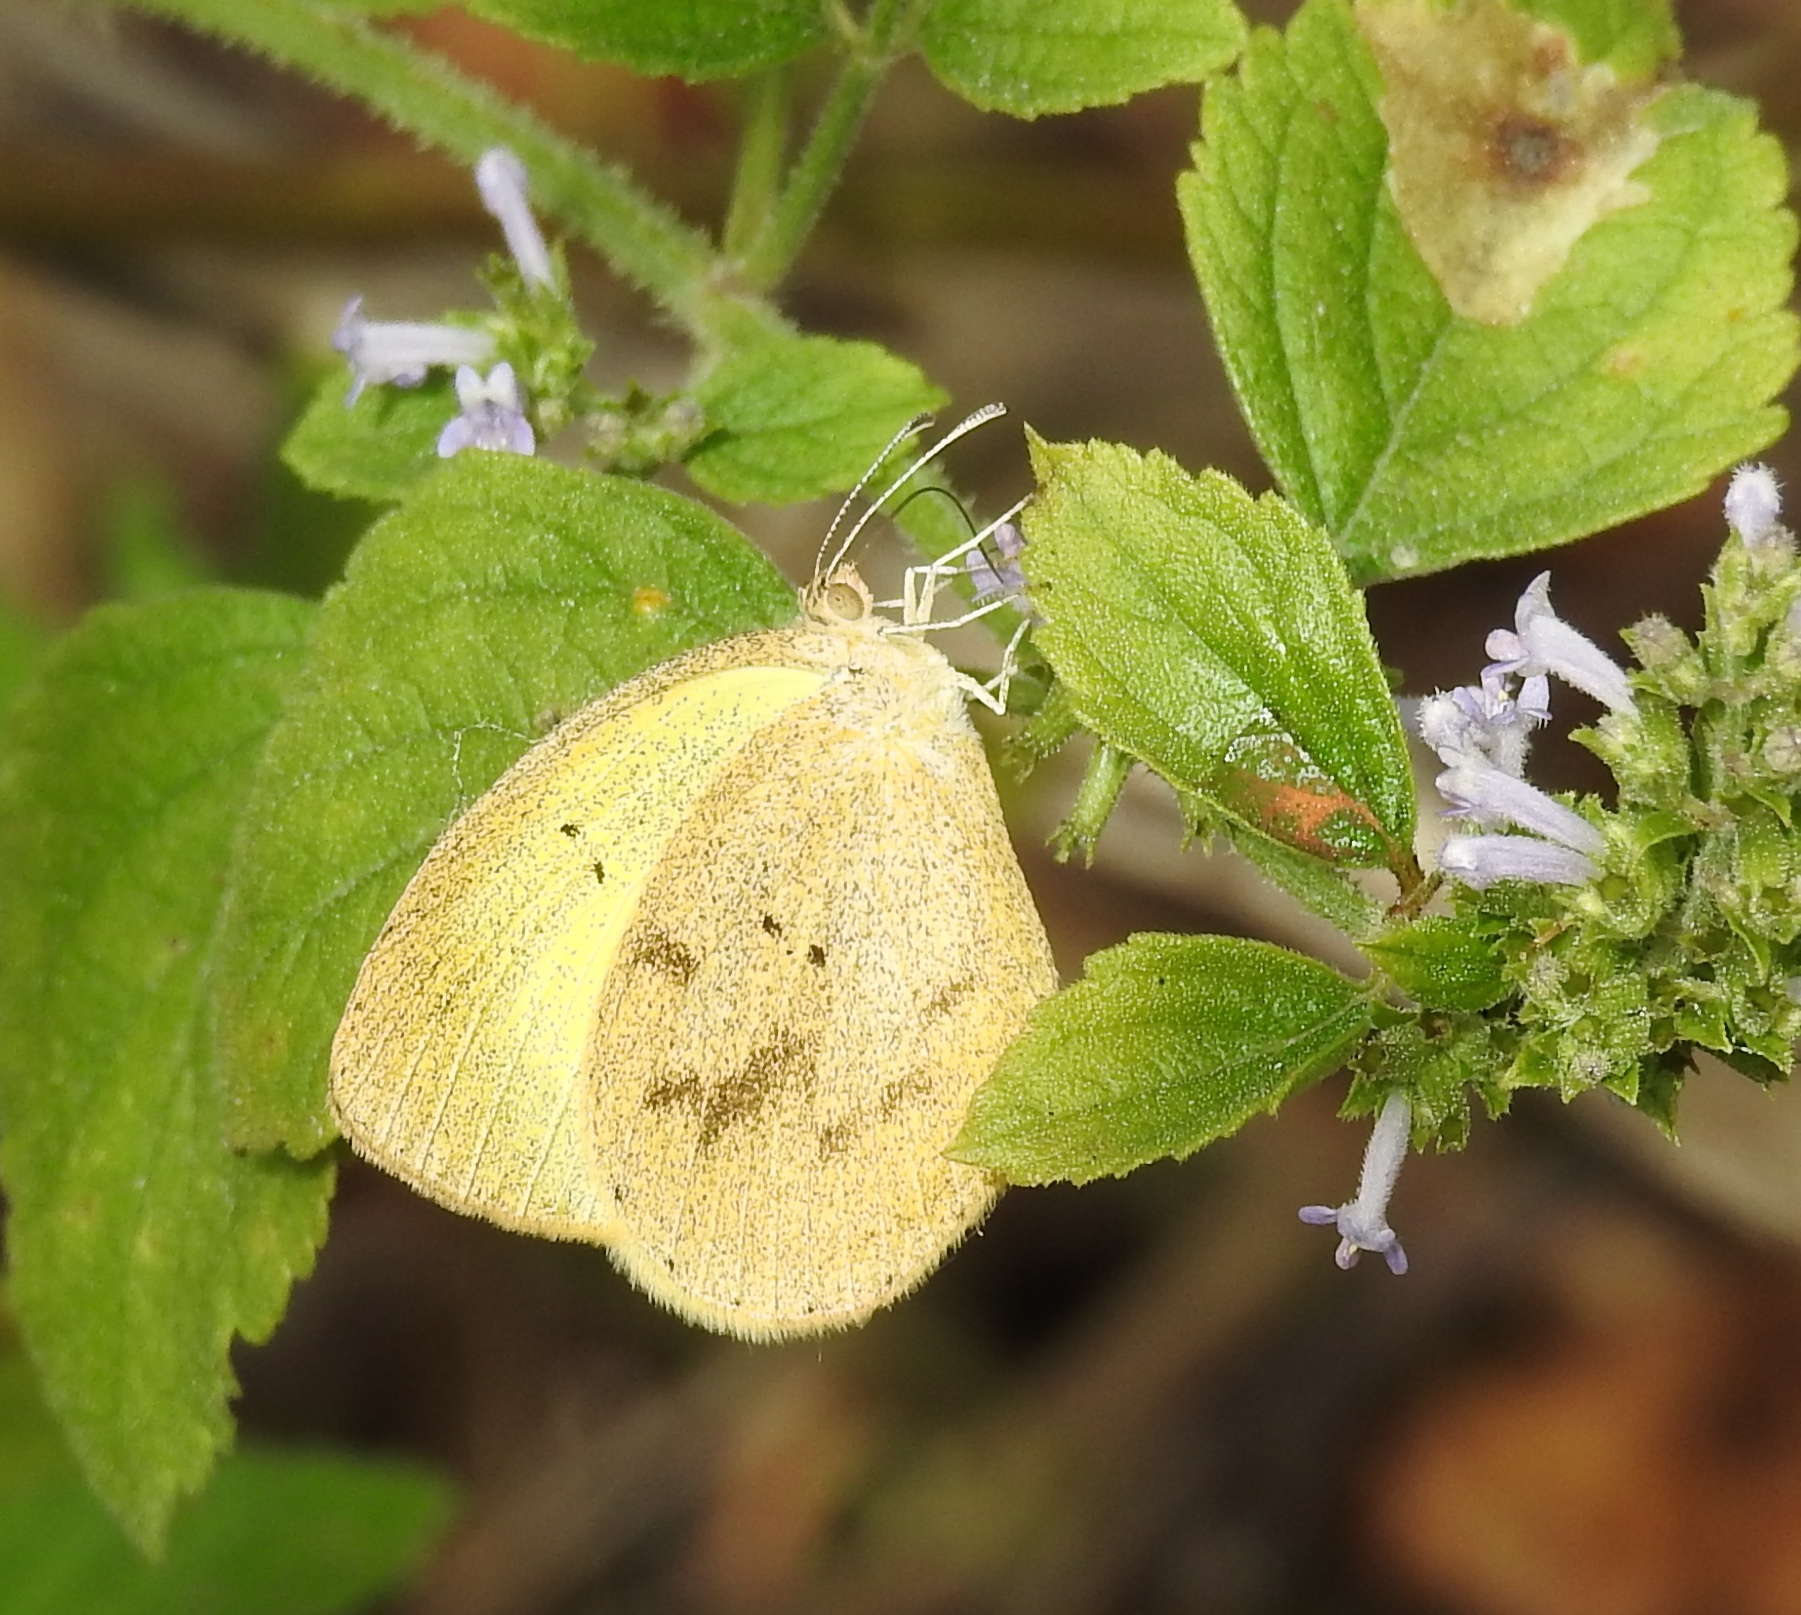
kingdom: Animalia
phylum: Arthropoda
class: Insecta
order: Lepidoptera
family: Pieridae
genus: Eurema
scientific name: Eurema daira
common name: Barred sulphur
